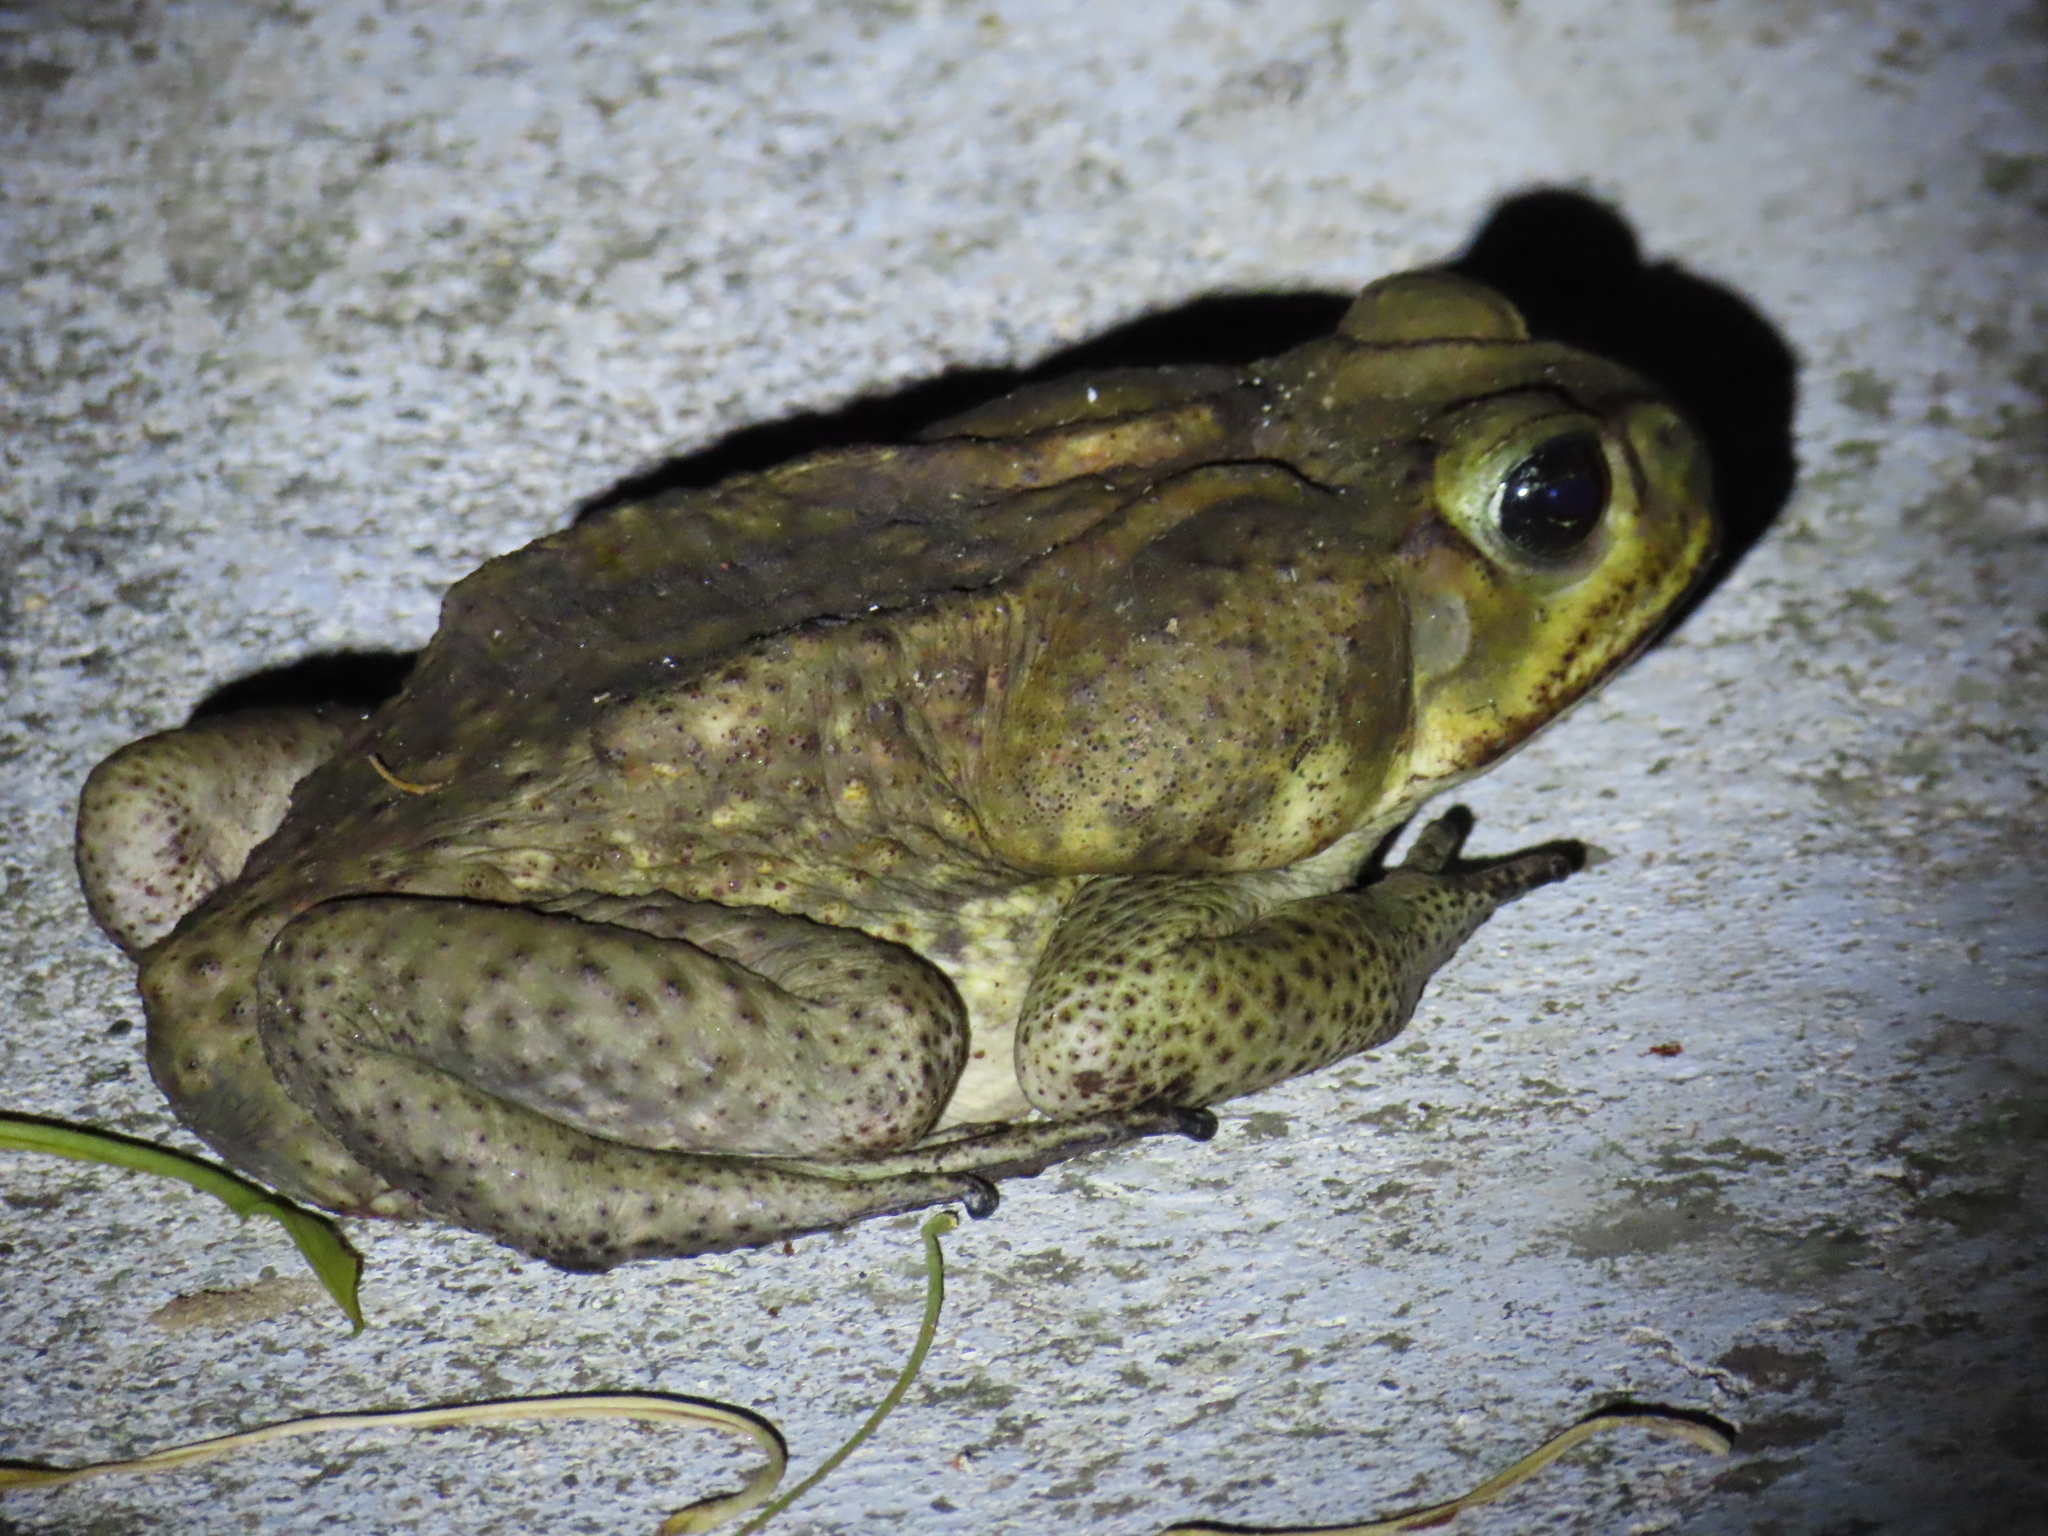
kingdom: Animalia
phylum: Chordata
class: Amphibia
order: Anura
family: Bufonidae
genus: Rhinella
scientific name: Rhinella horribilis
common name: Mesoamerican cane toad
